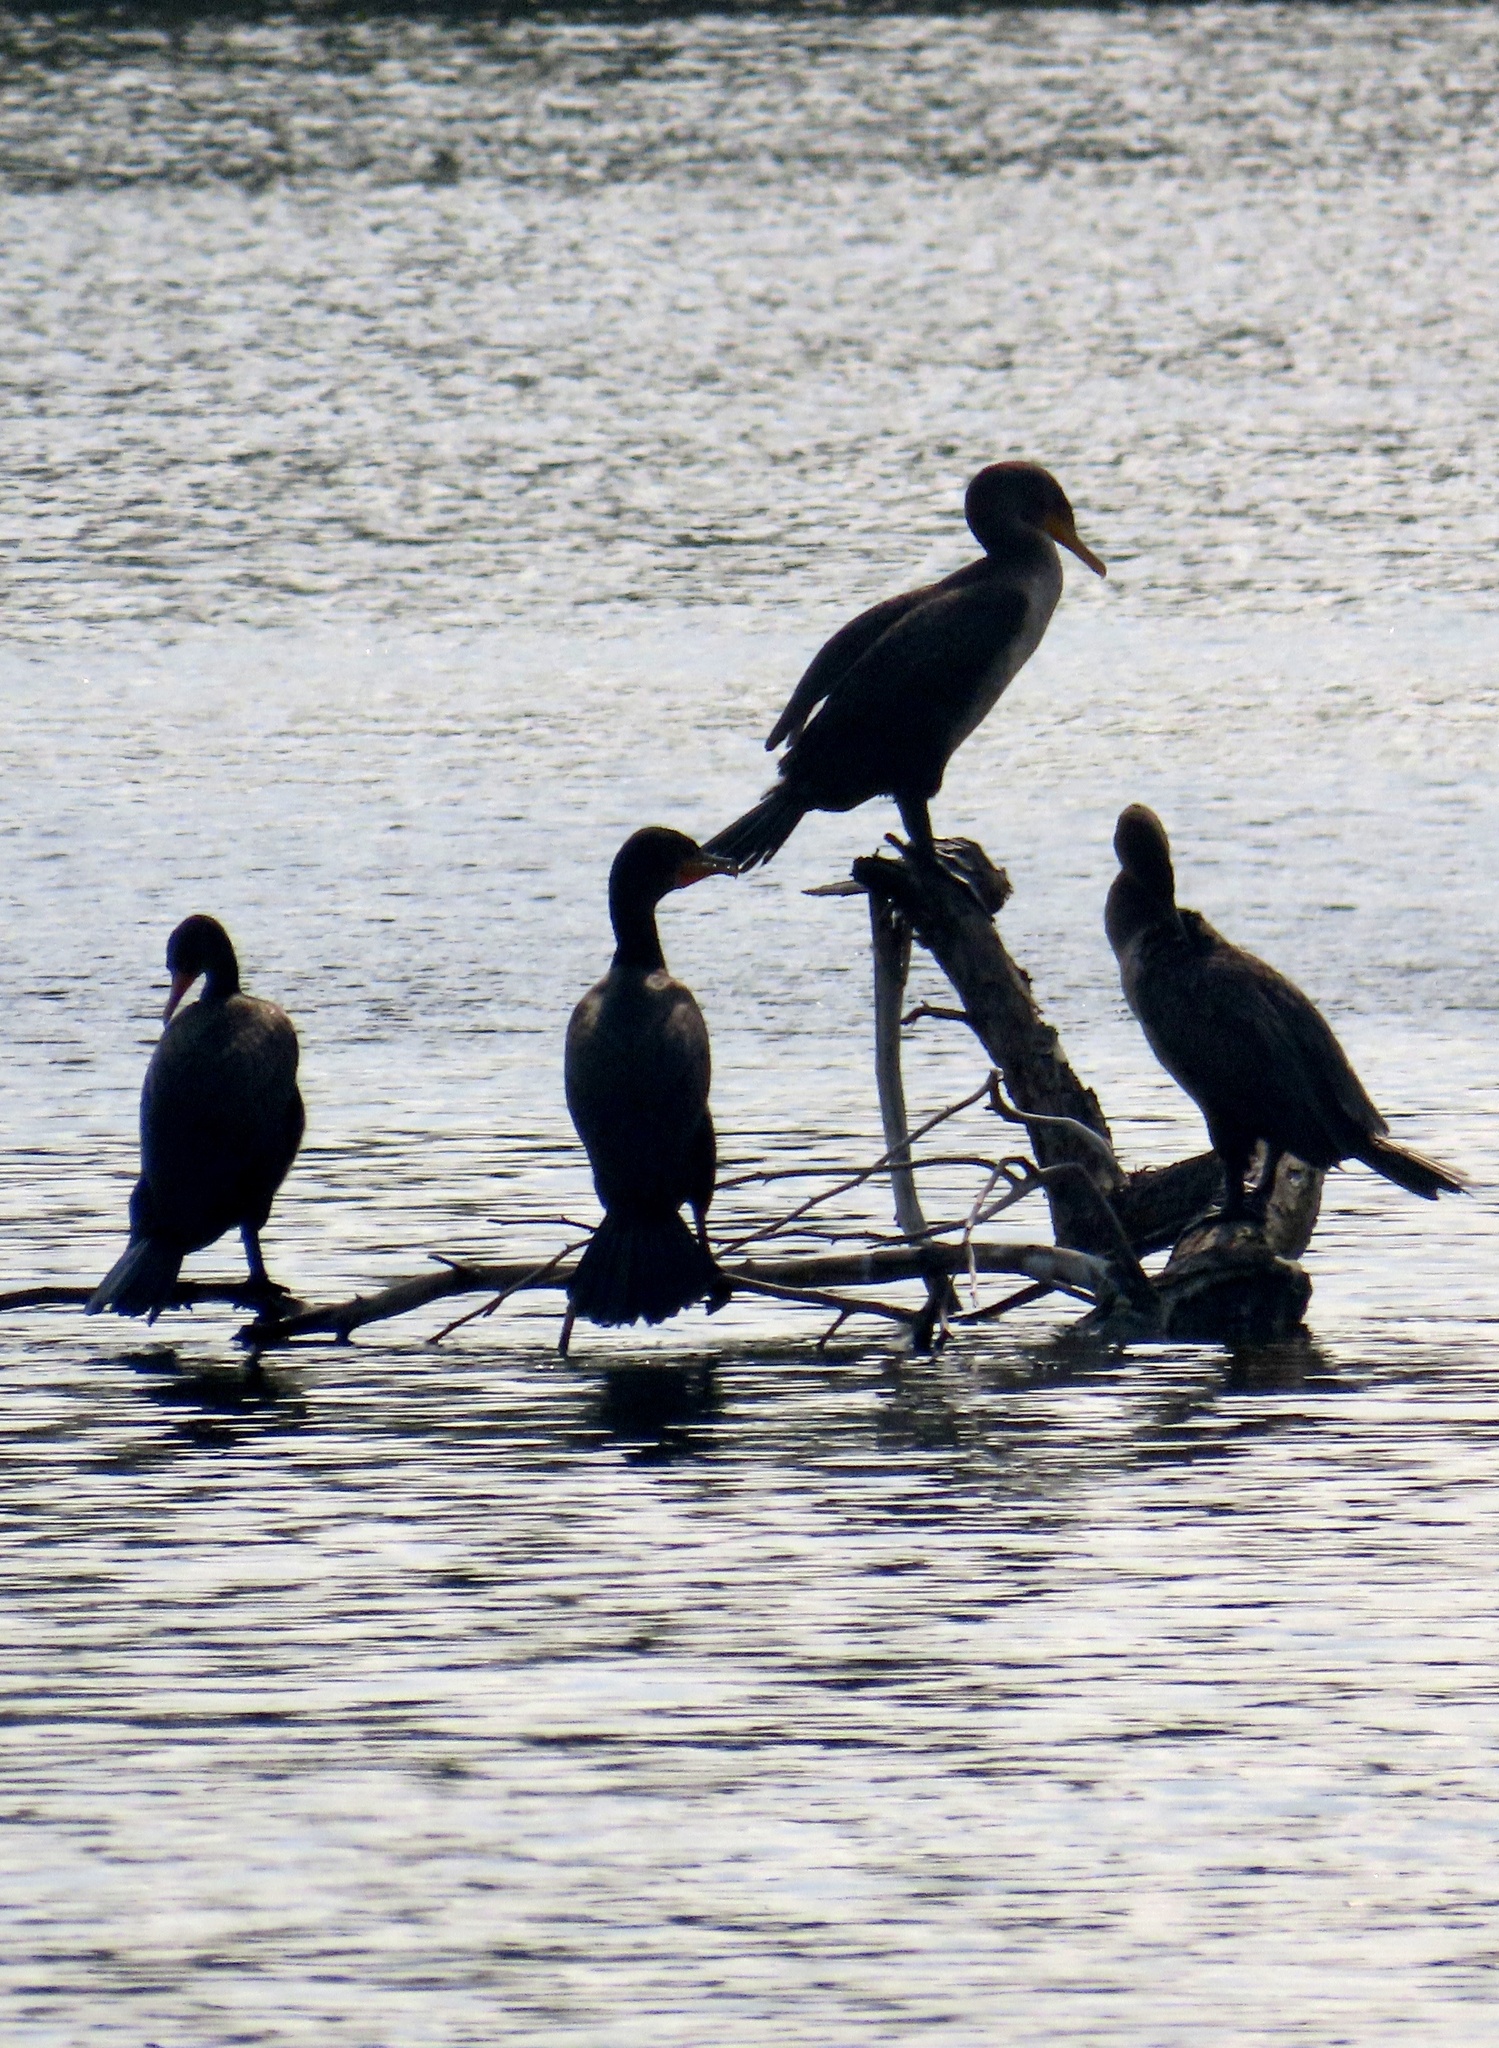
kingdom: Animalia
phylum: Chordata
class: Aves
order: Suliformes
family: Phalacrocoracidae
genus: Phalacrocorax
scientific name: Phalacrocorax auritus
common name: Double-crested cormorant
